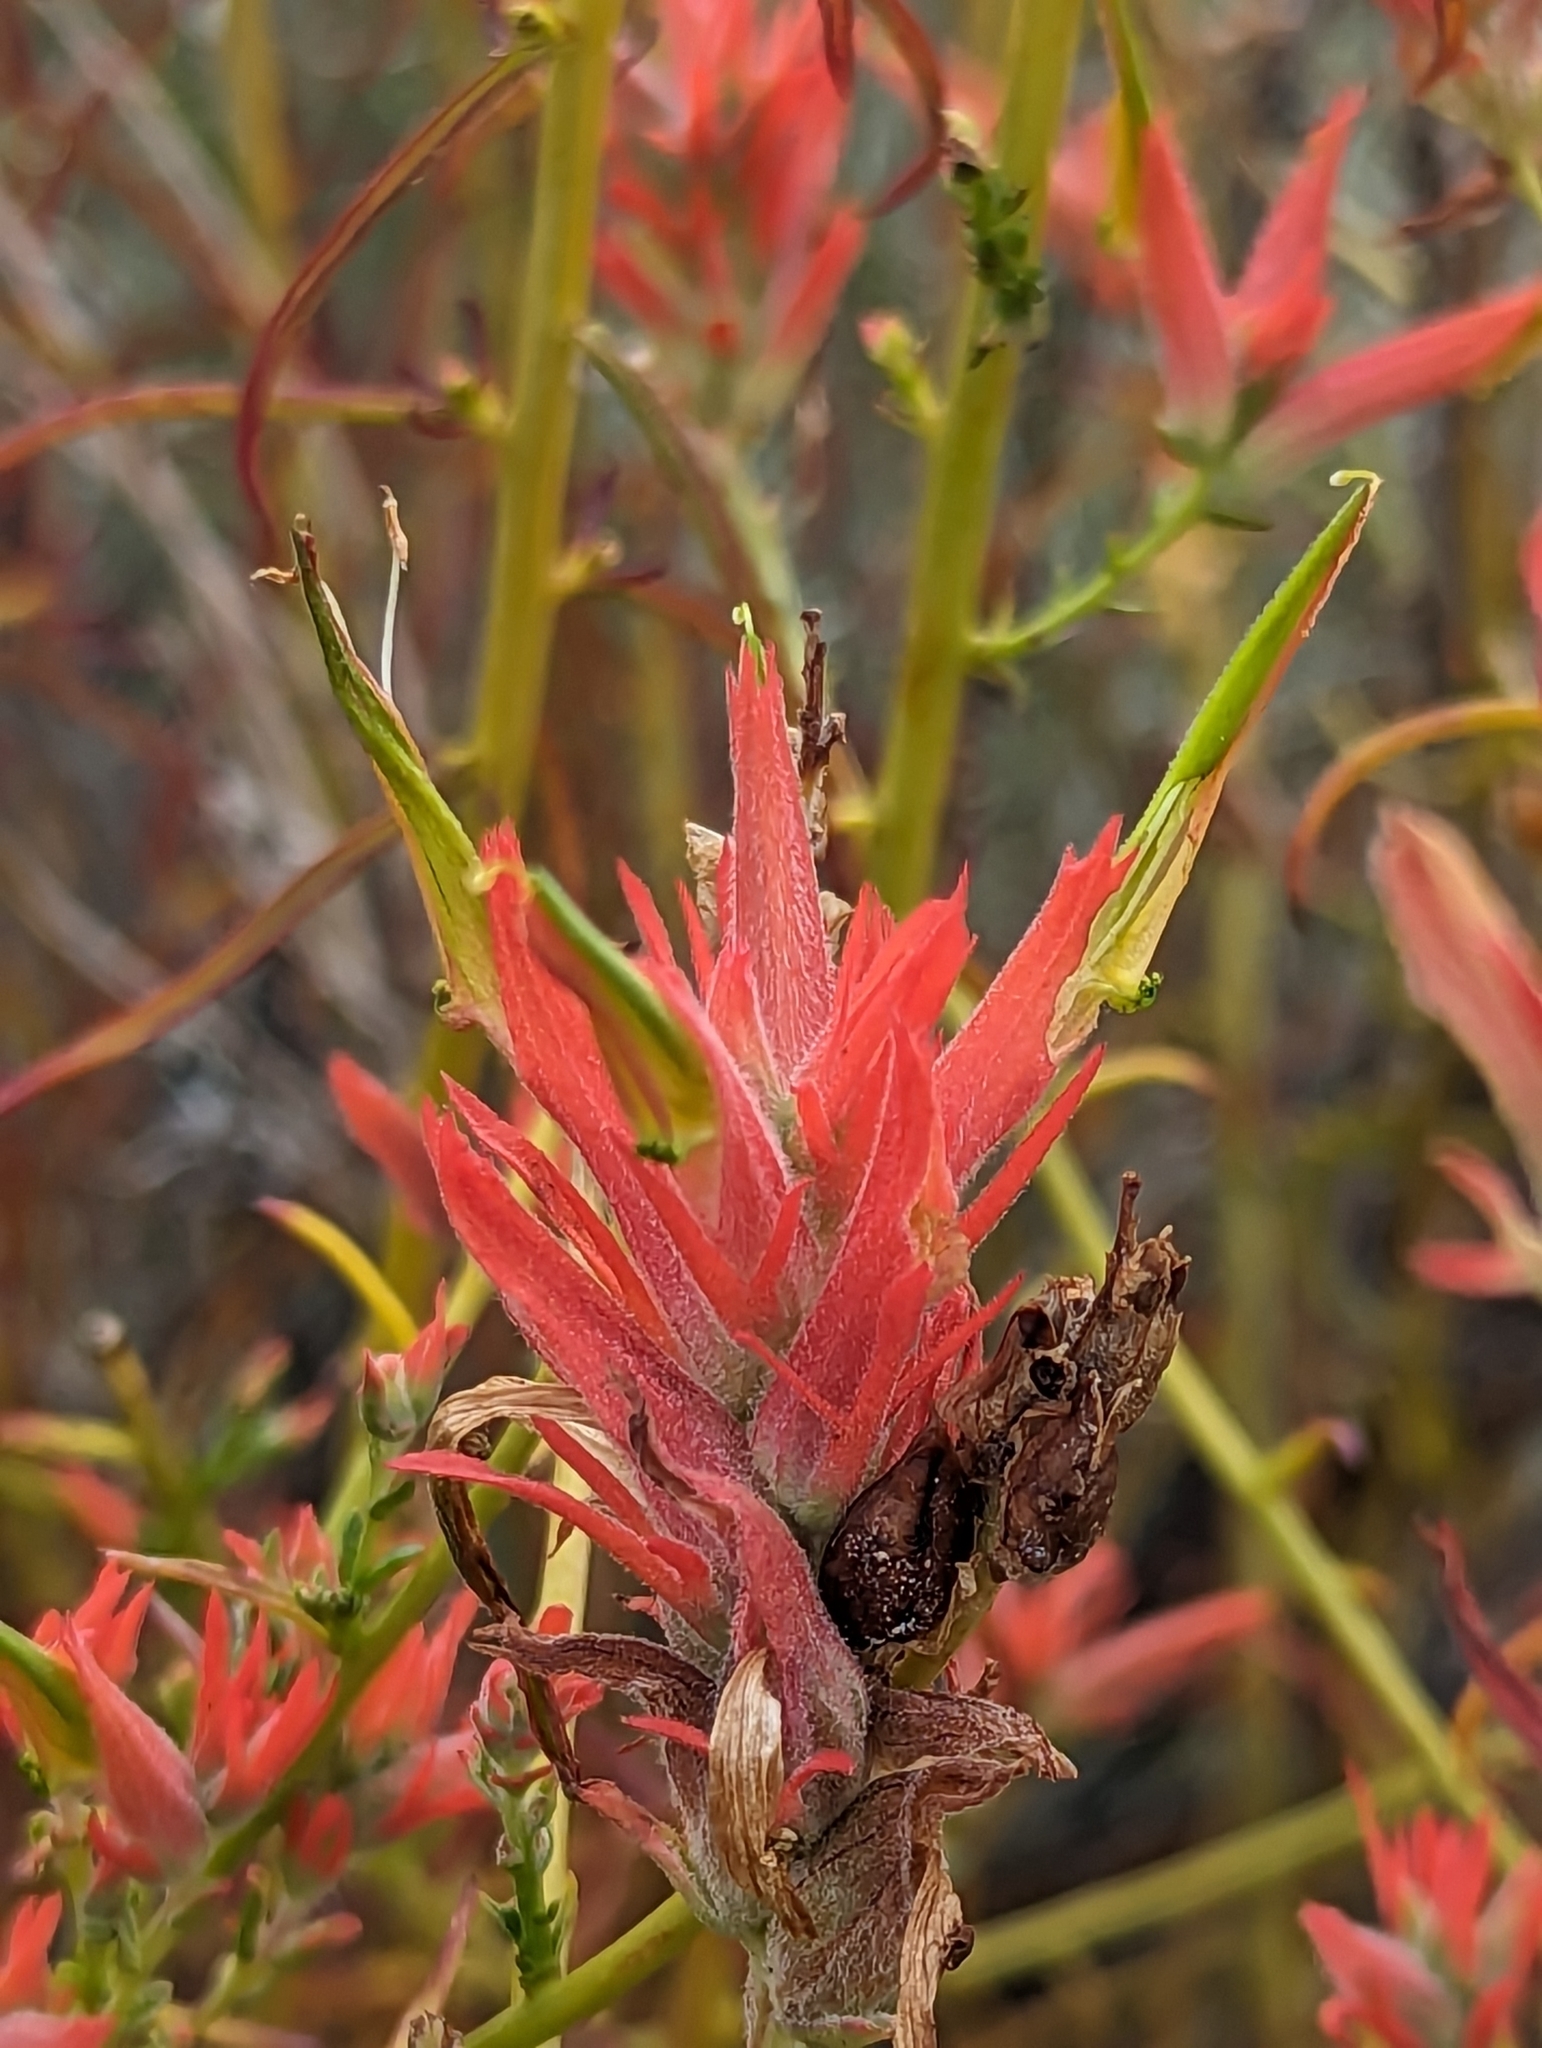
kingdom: Plantae
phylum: Tracheophyta
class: Magnoliopsida
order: Lamiales
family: Orobanchaceae
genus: Castilleja
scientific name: Castilleja linariifolia
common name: Wyoming paintbrush
